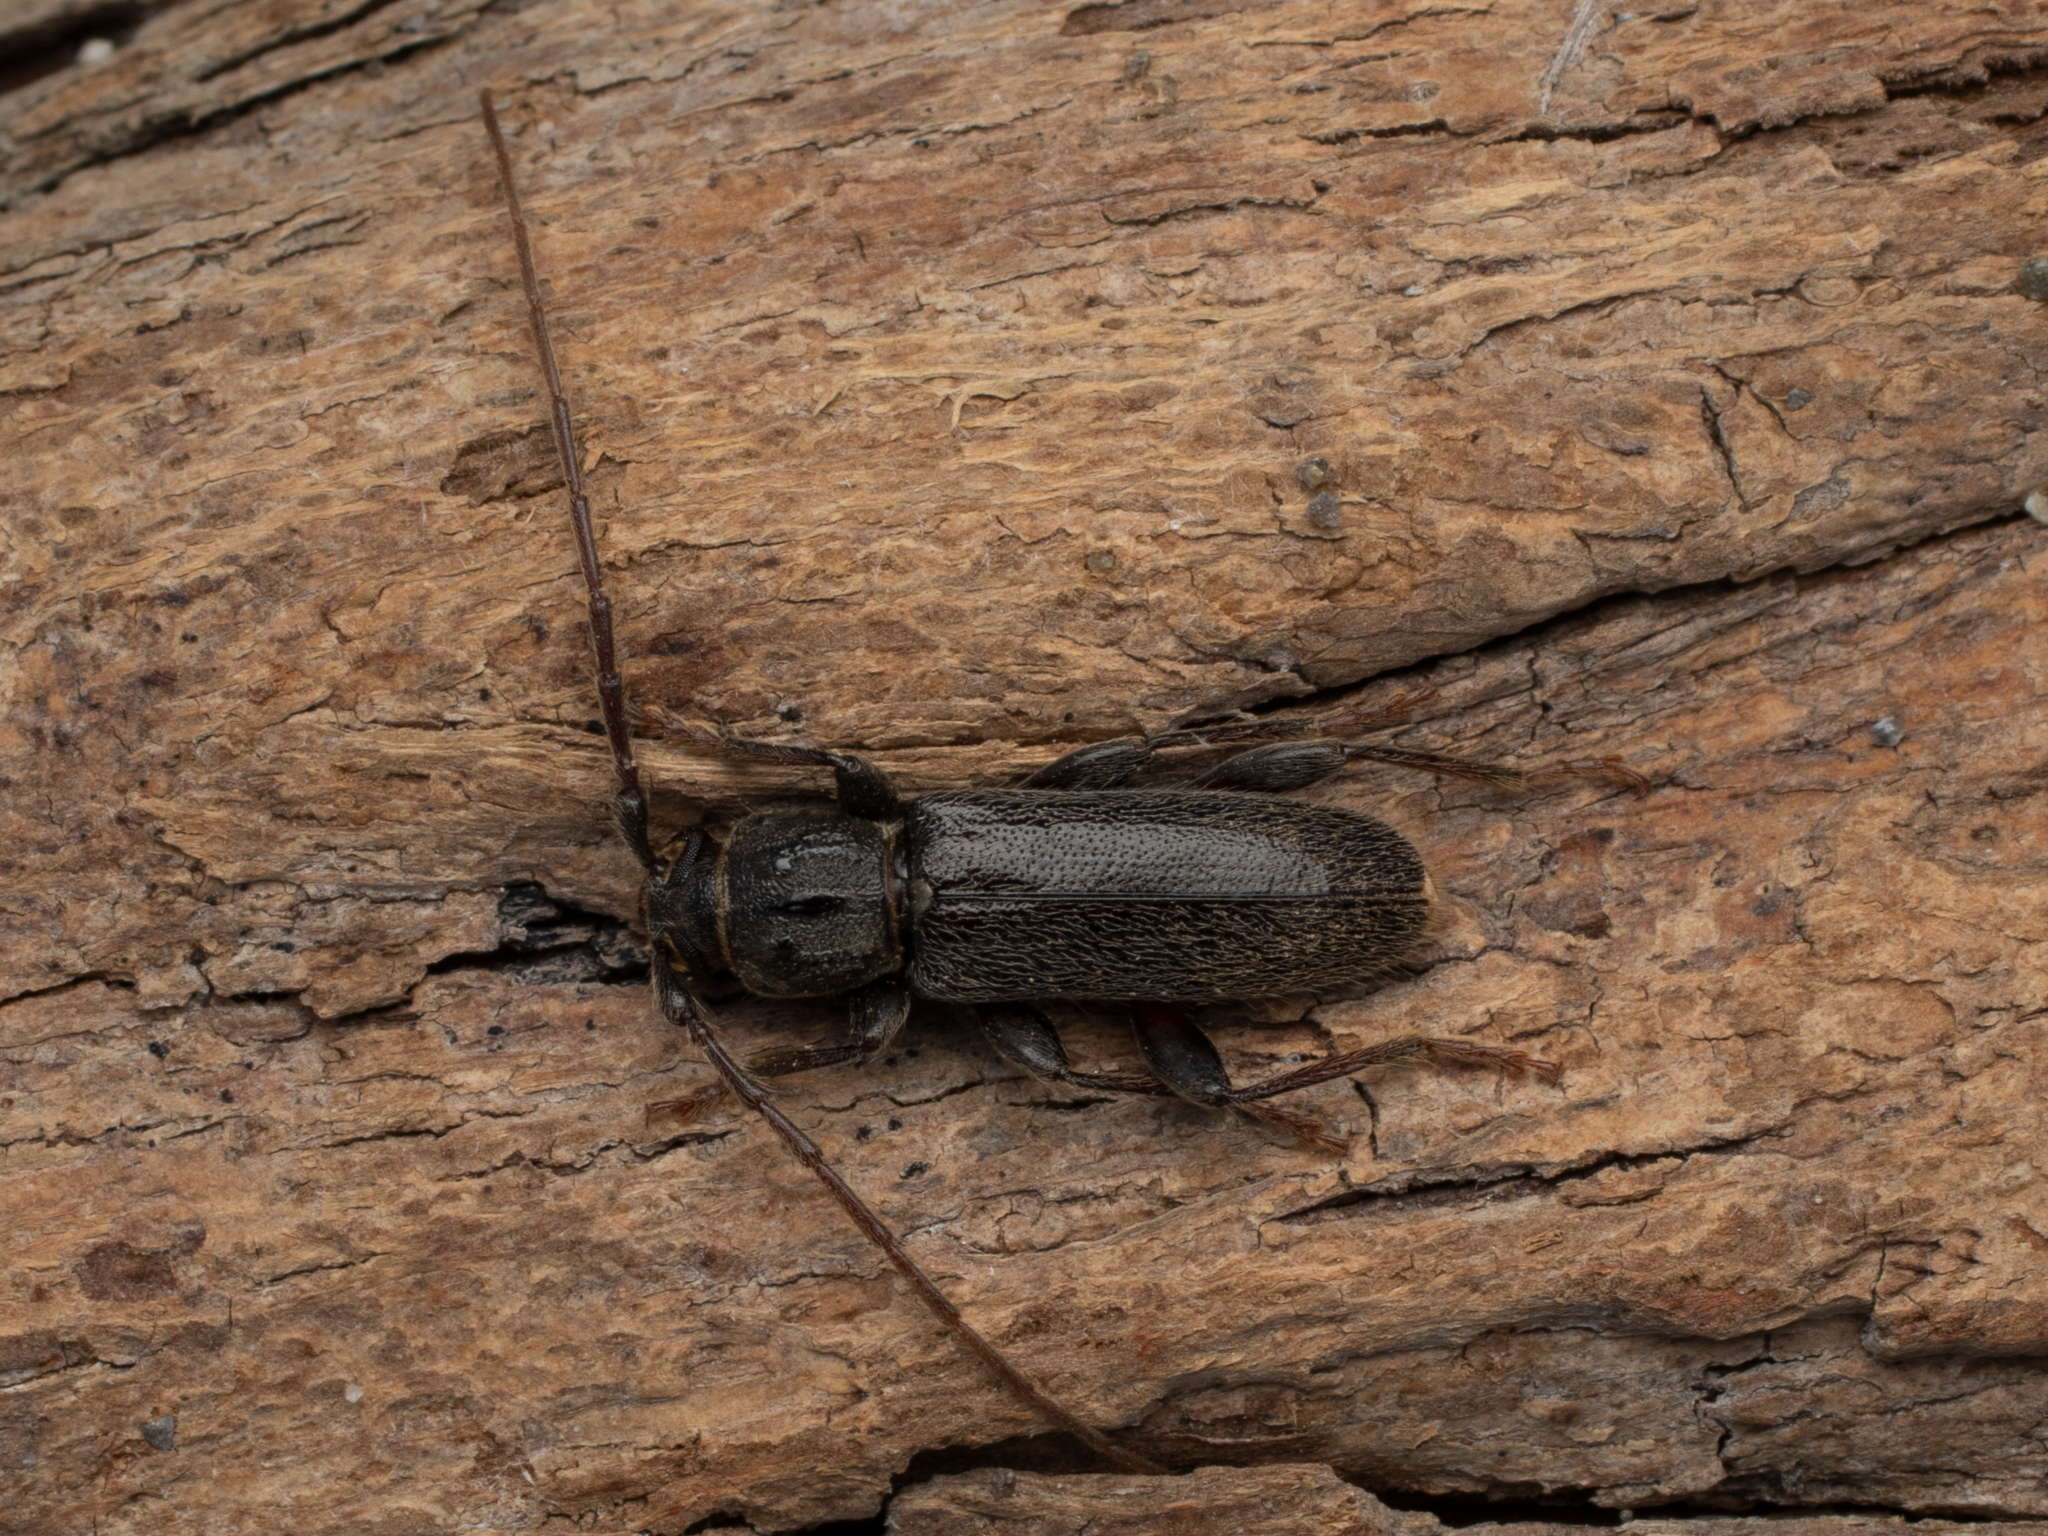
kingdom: Animalia
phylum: Arthropoda
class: Insecta
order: Coleoptera
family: Cerambycidae
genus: Liogramma
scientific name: Liogramma zelandica
